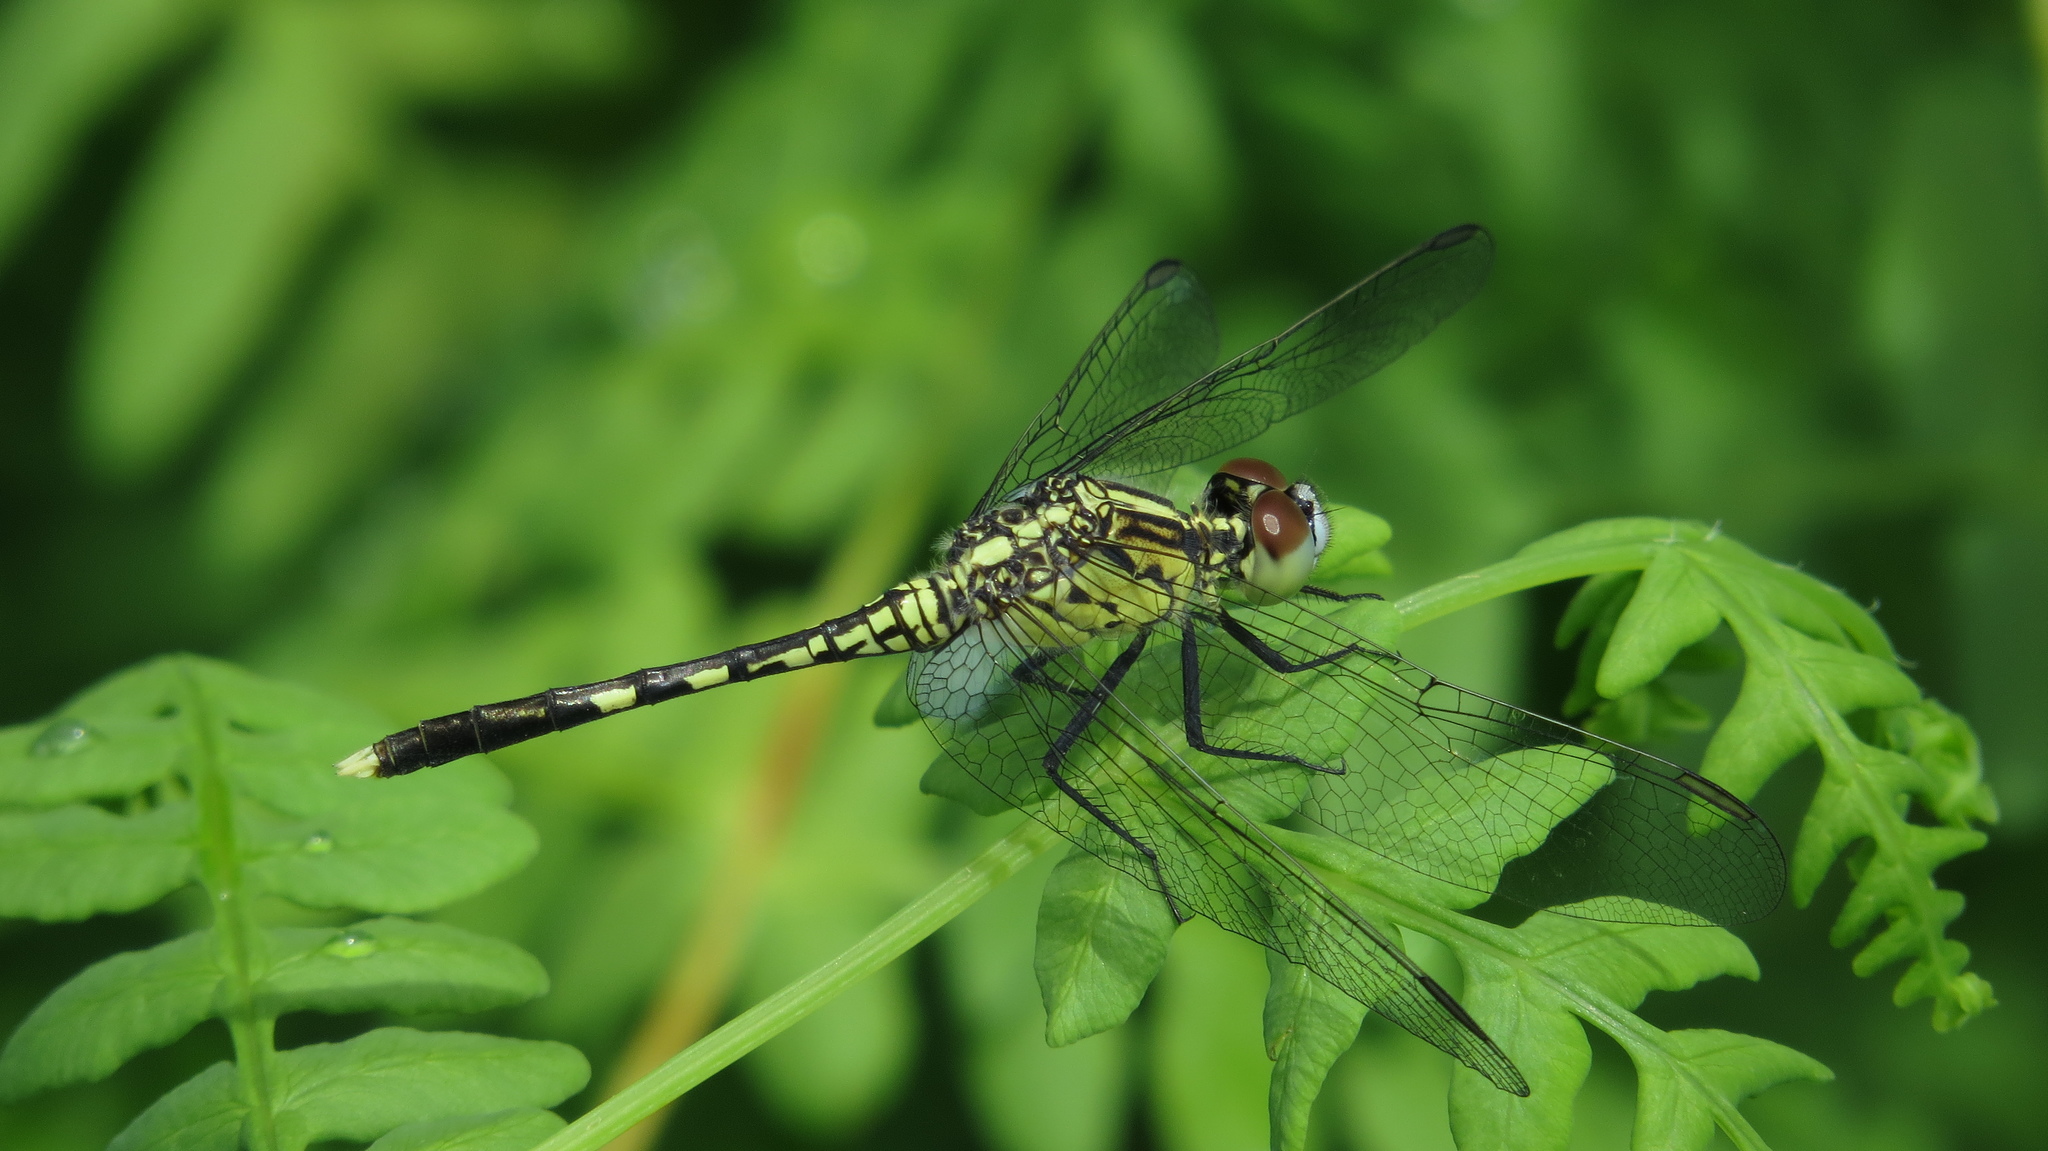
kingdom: Animalia
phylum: Arthropoda
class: Insecta
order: Odonata
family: Libellulidae
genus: Diplacodes
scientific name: Diplacodes trivialis
